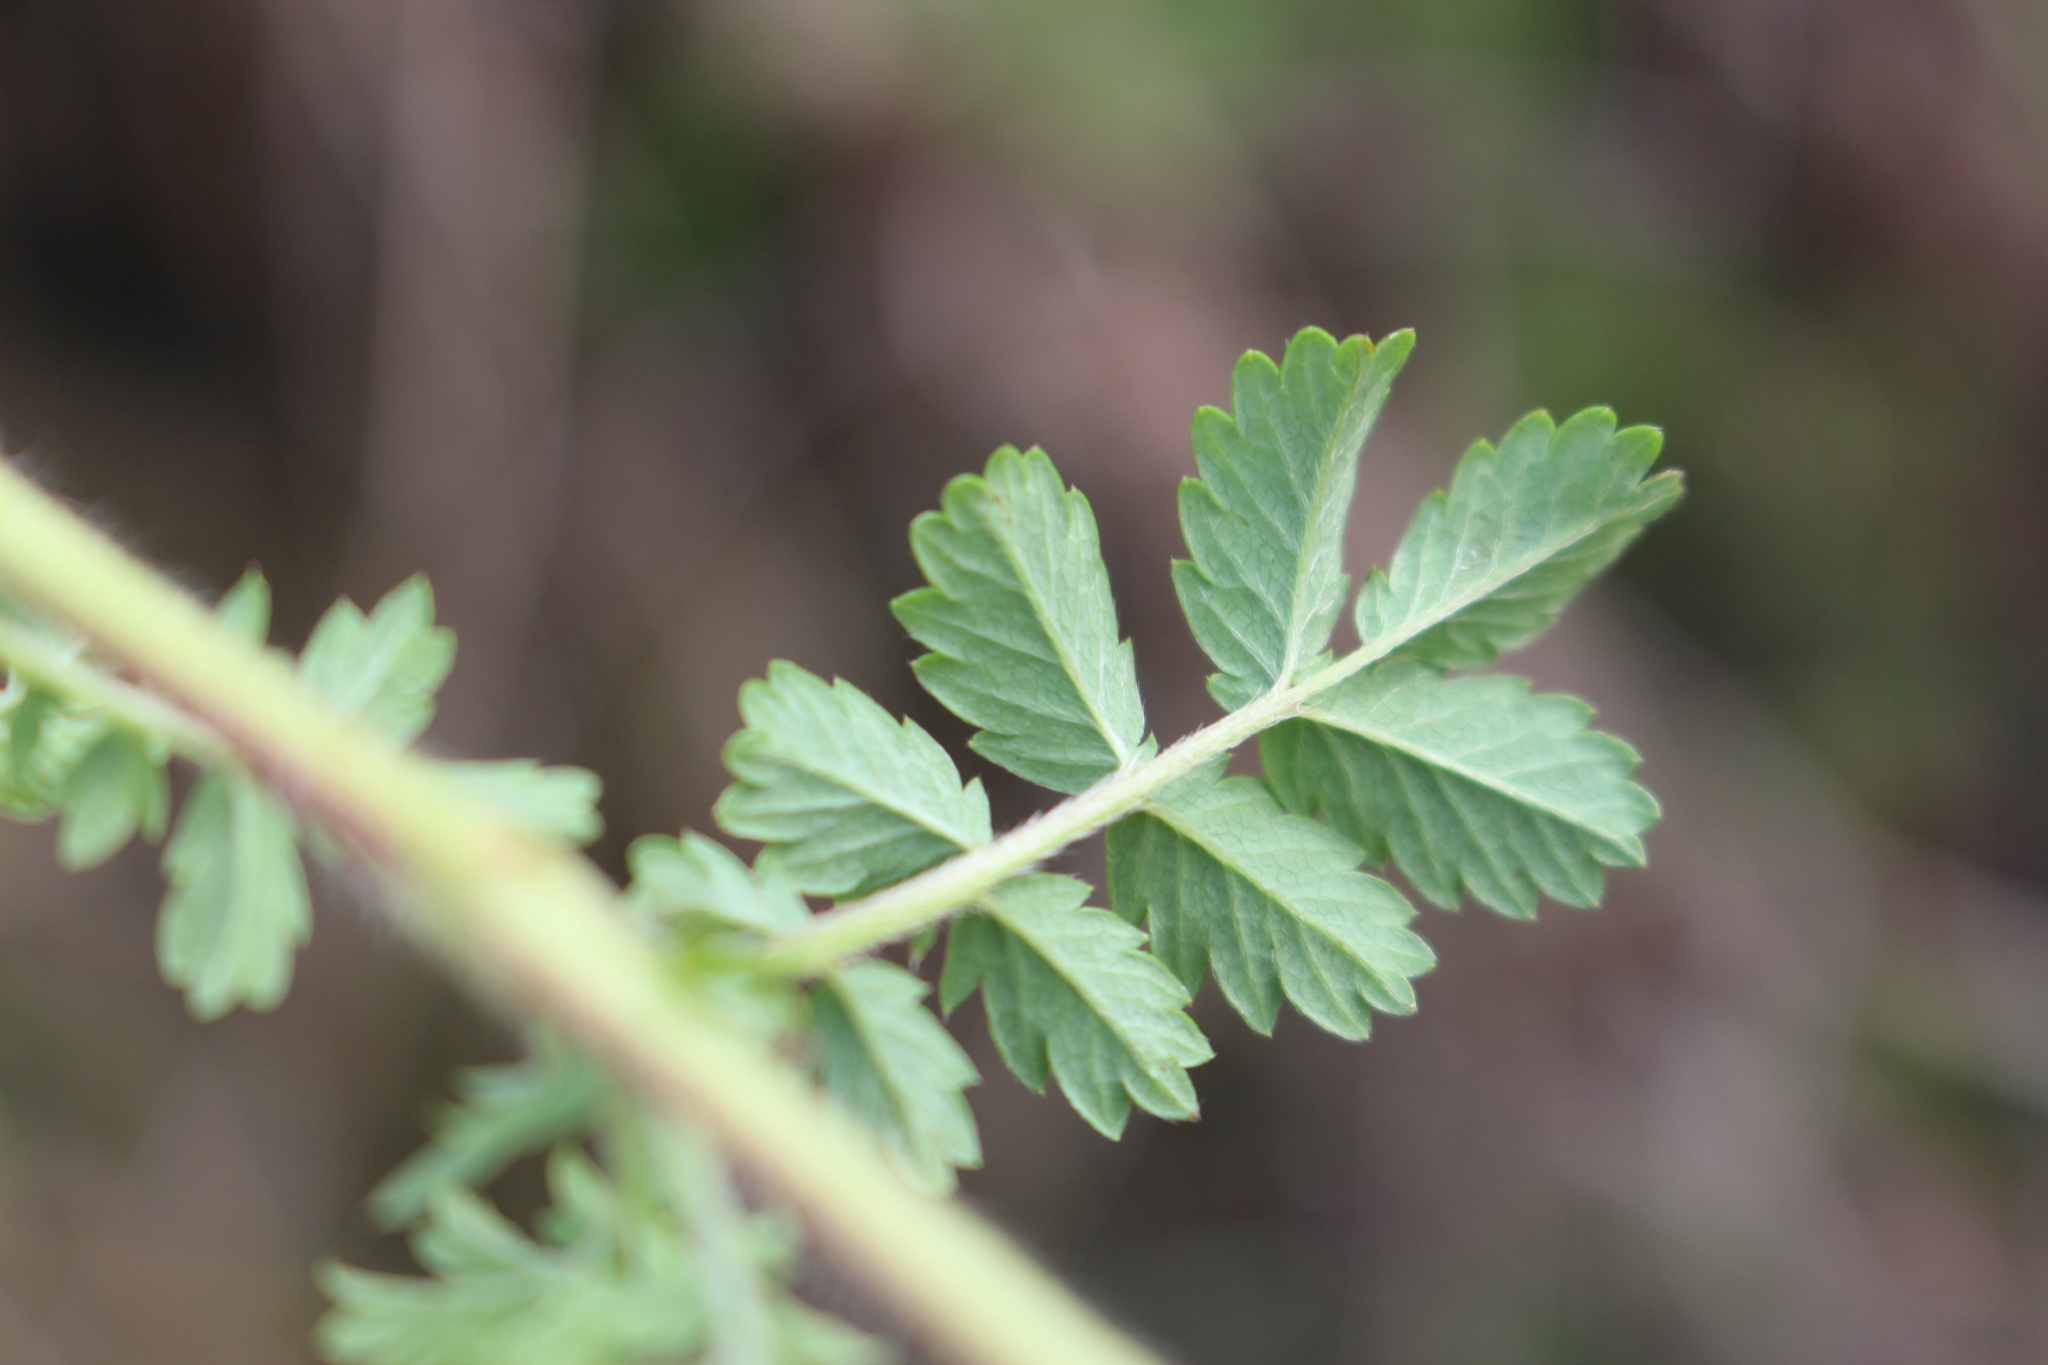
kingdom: Plantae
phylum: Tracheophyta
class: Magnoliopsida
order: Rosales
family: Rosaceae
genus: Acaena
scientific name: Acaena novae-zelandiae
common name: Pirri-pirri-bur
